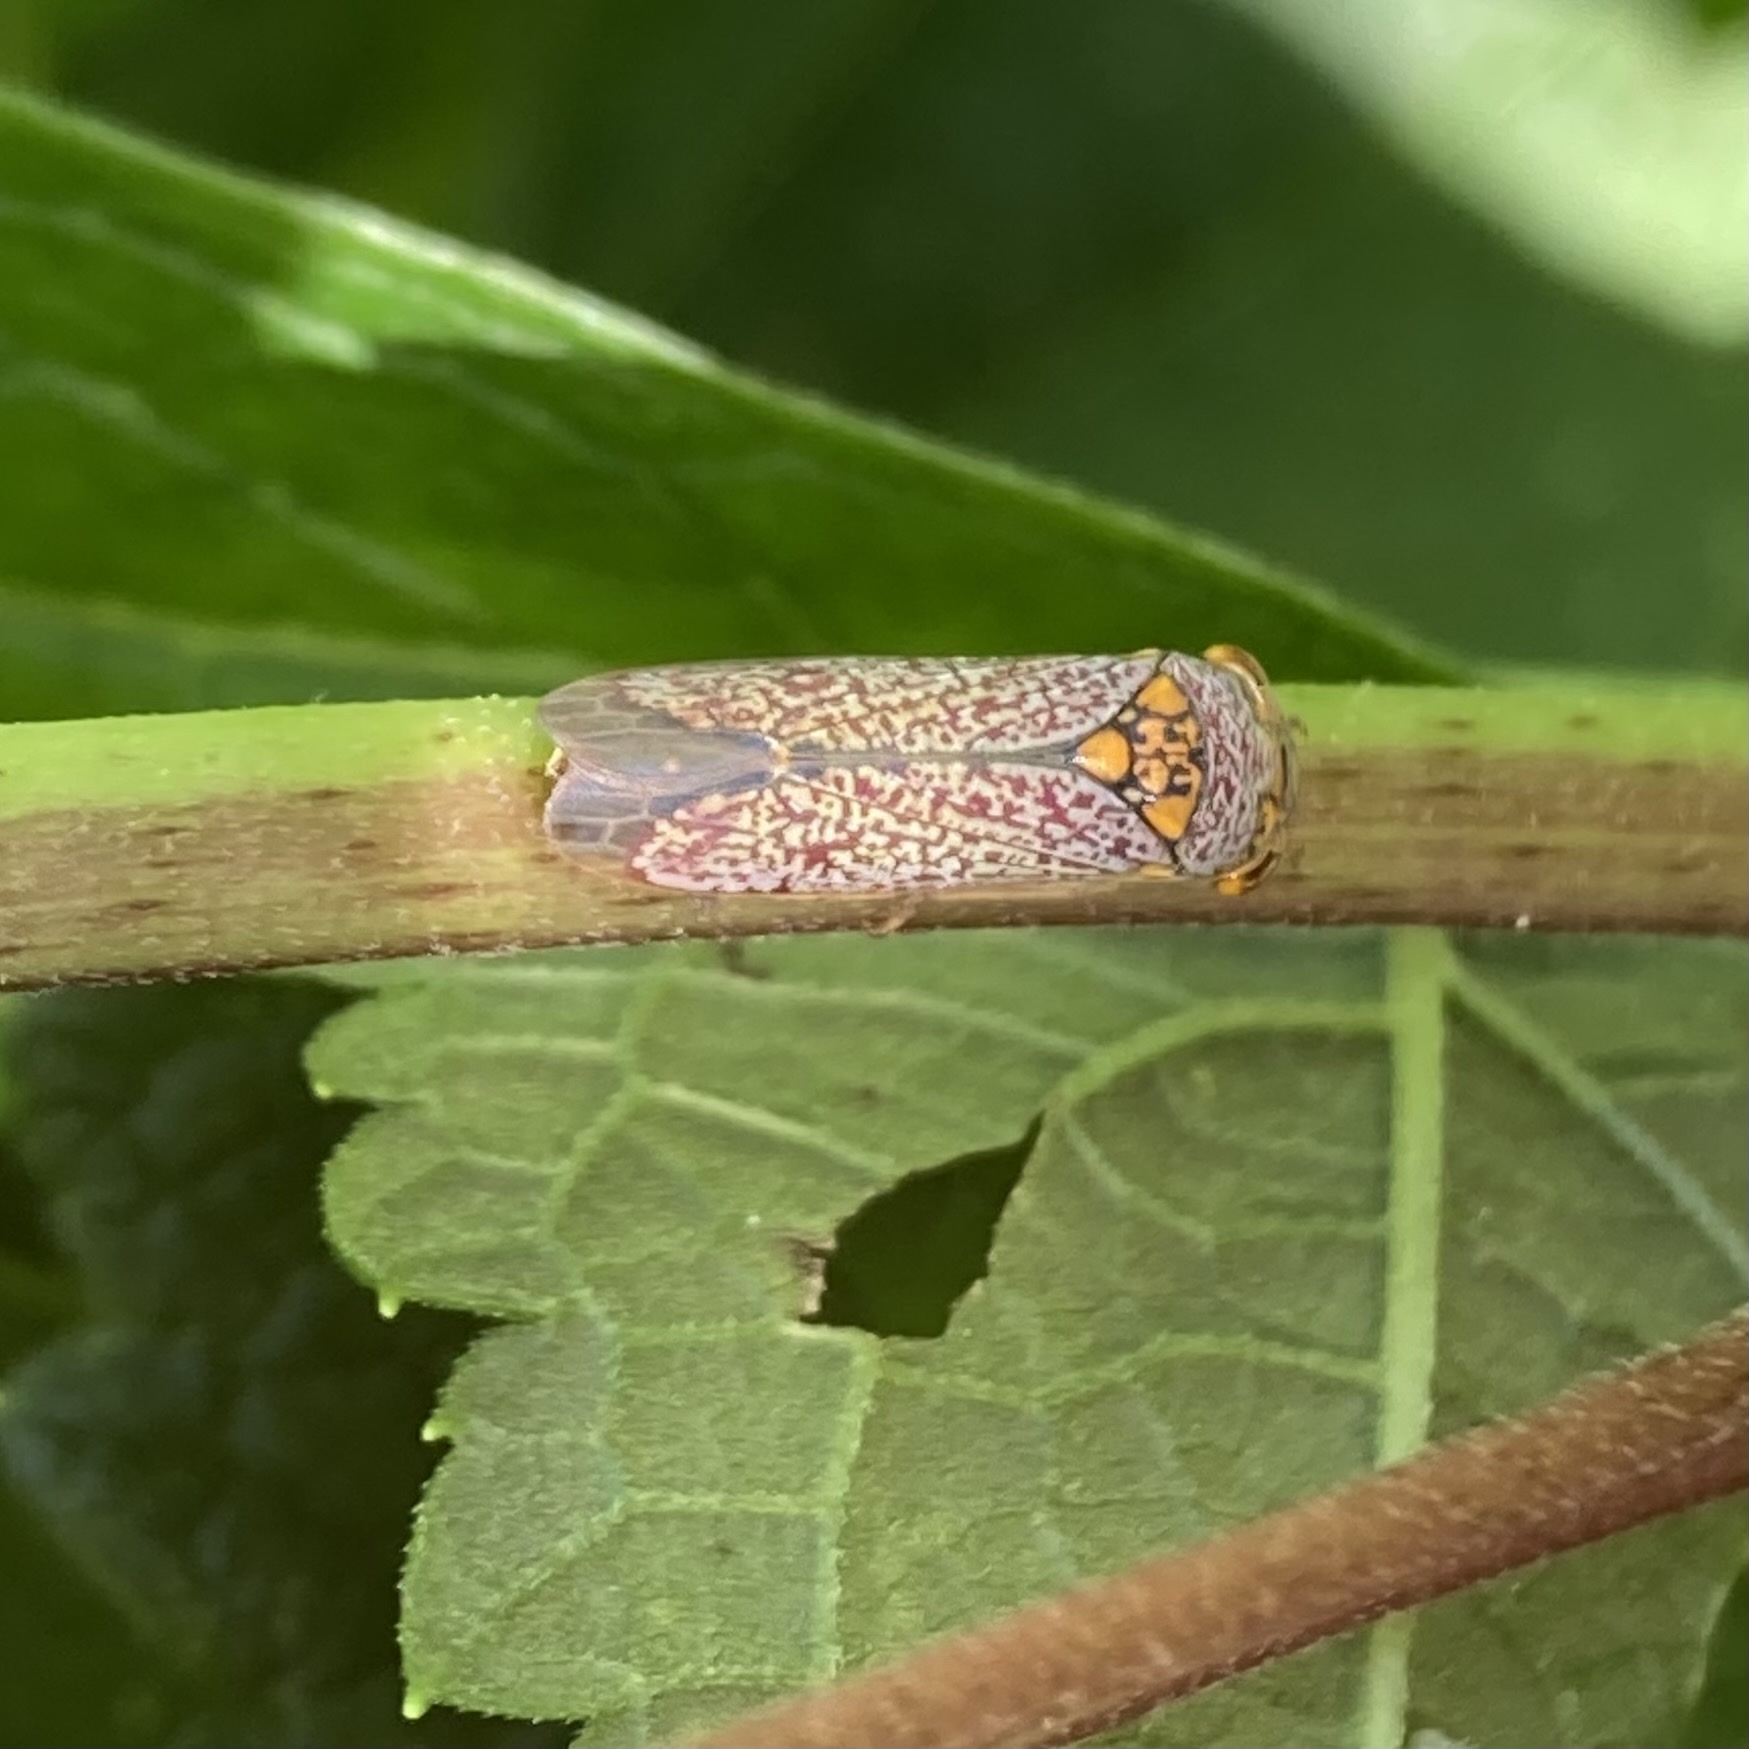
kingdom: Animalia
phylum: Arthropoda
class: Insecta
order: Hemiptera
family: Cicadellidae
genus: Oncometopia
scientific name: Oncometopia orbona
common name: Broad-headed sharpshooter
